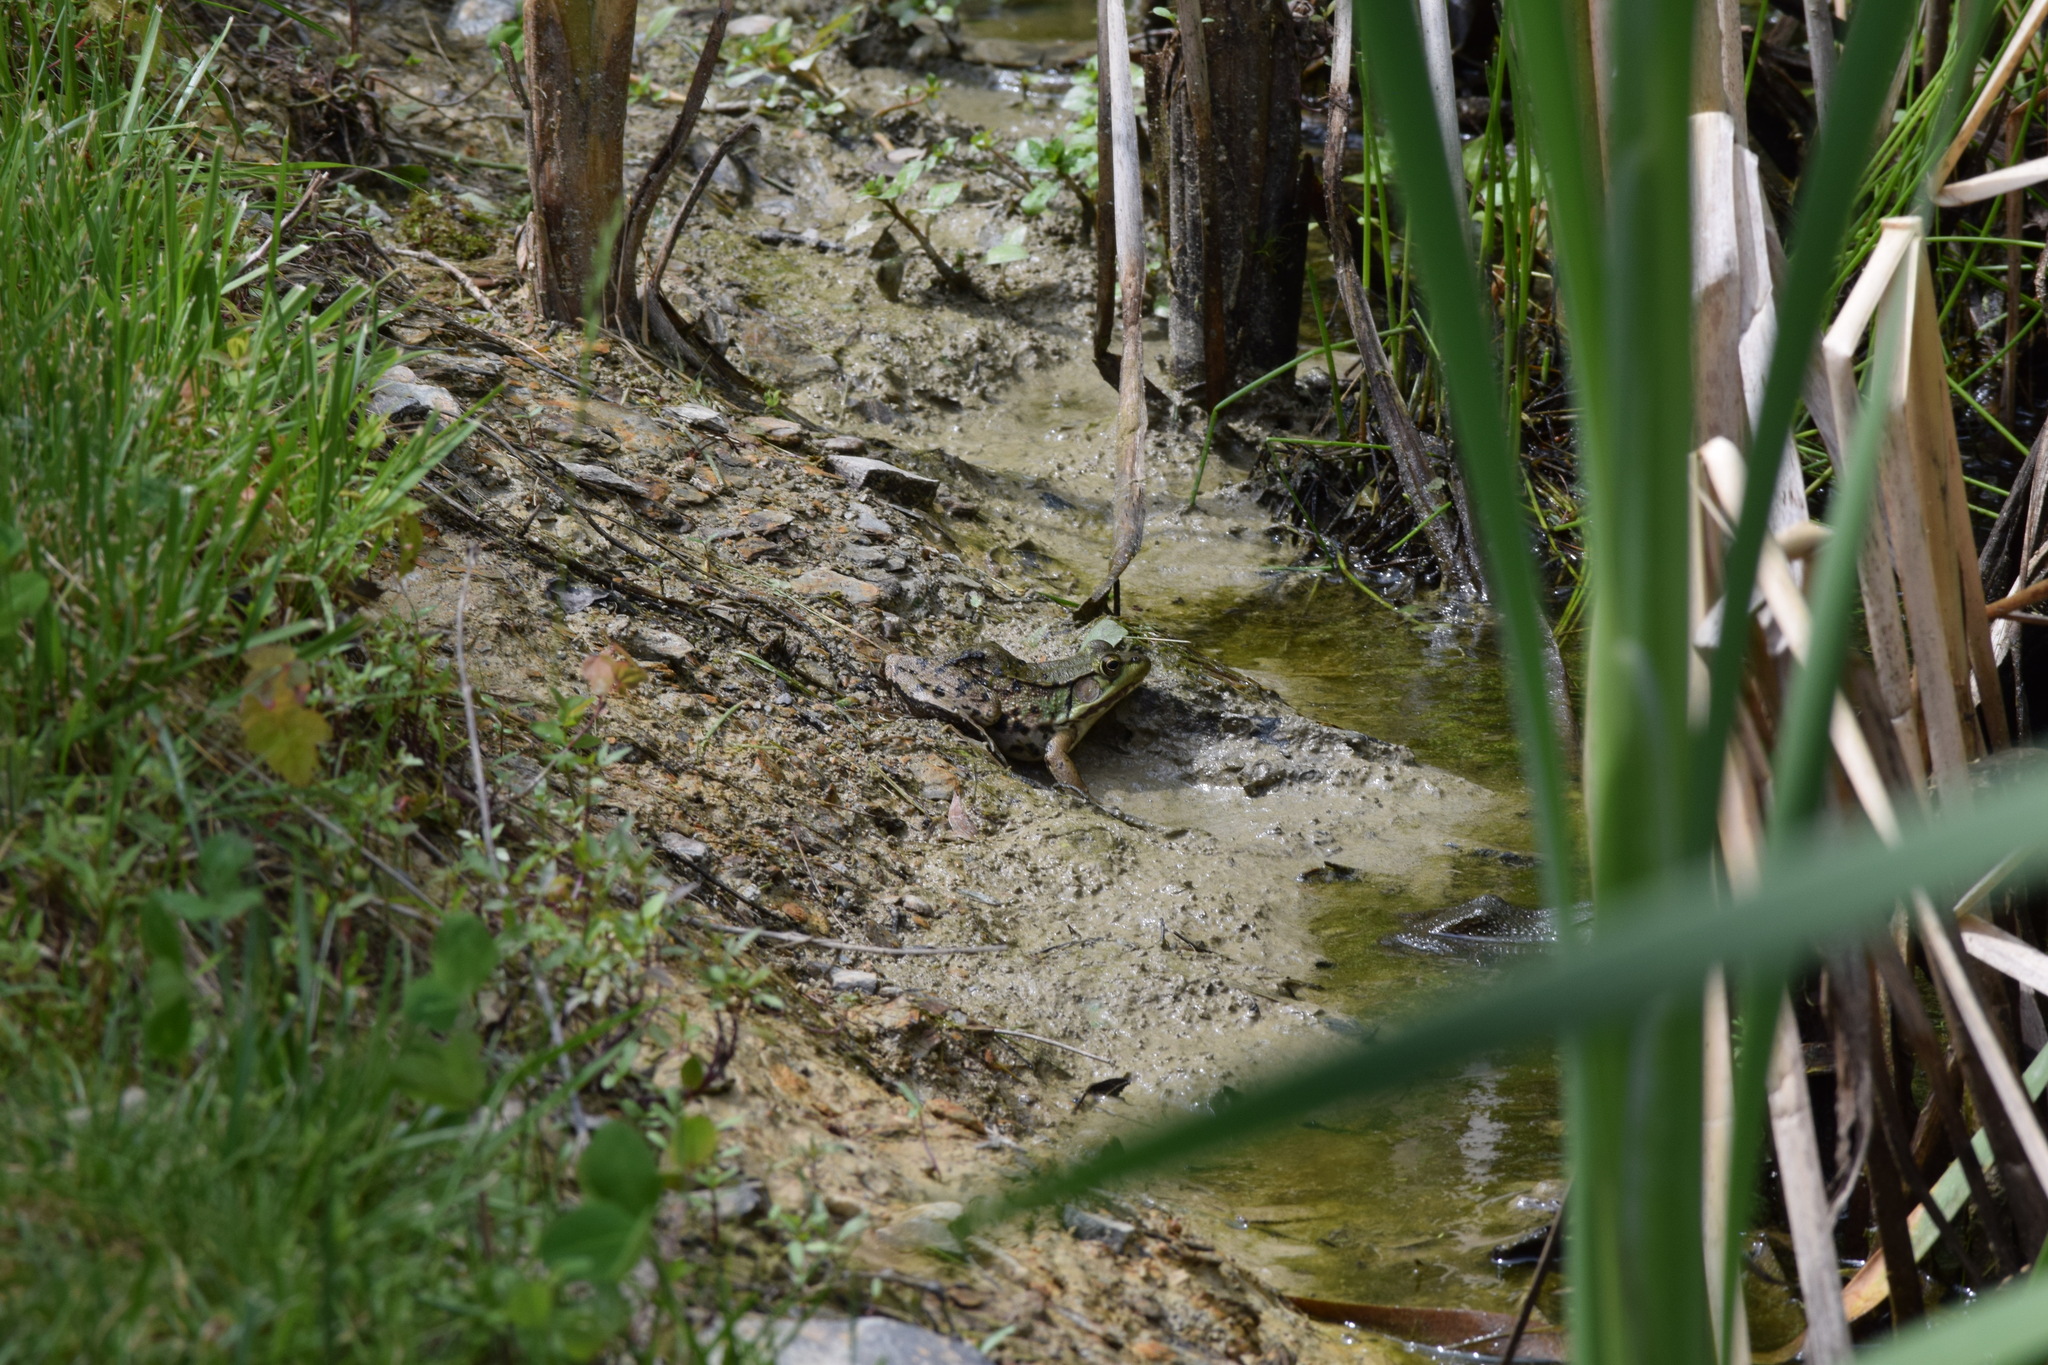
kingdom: Animalia
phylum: Chordata
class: Amphibia
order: Anura
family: Ranidae
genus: Lithobates
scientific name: Lithobates clamitans
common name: Green frog
